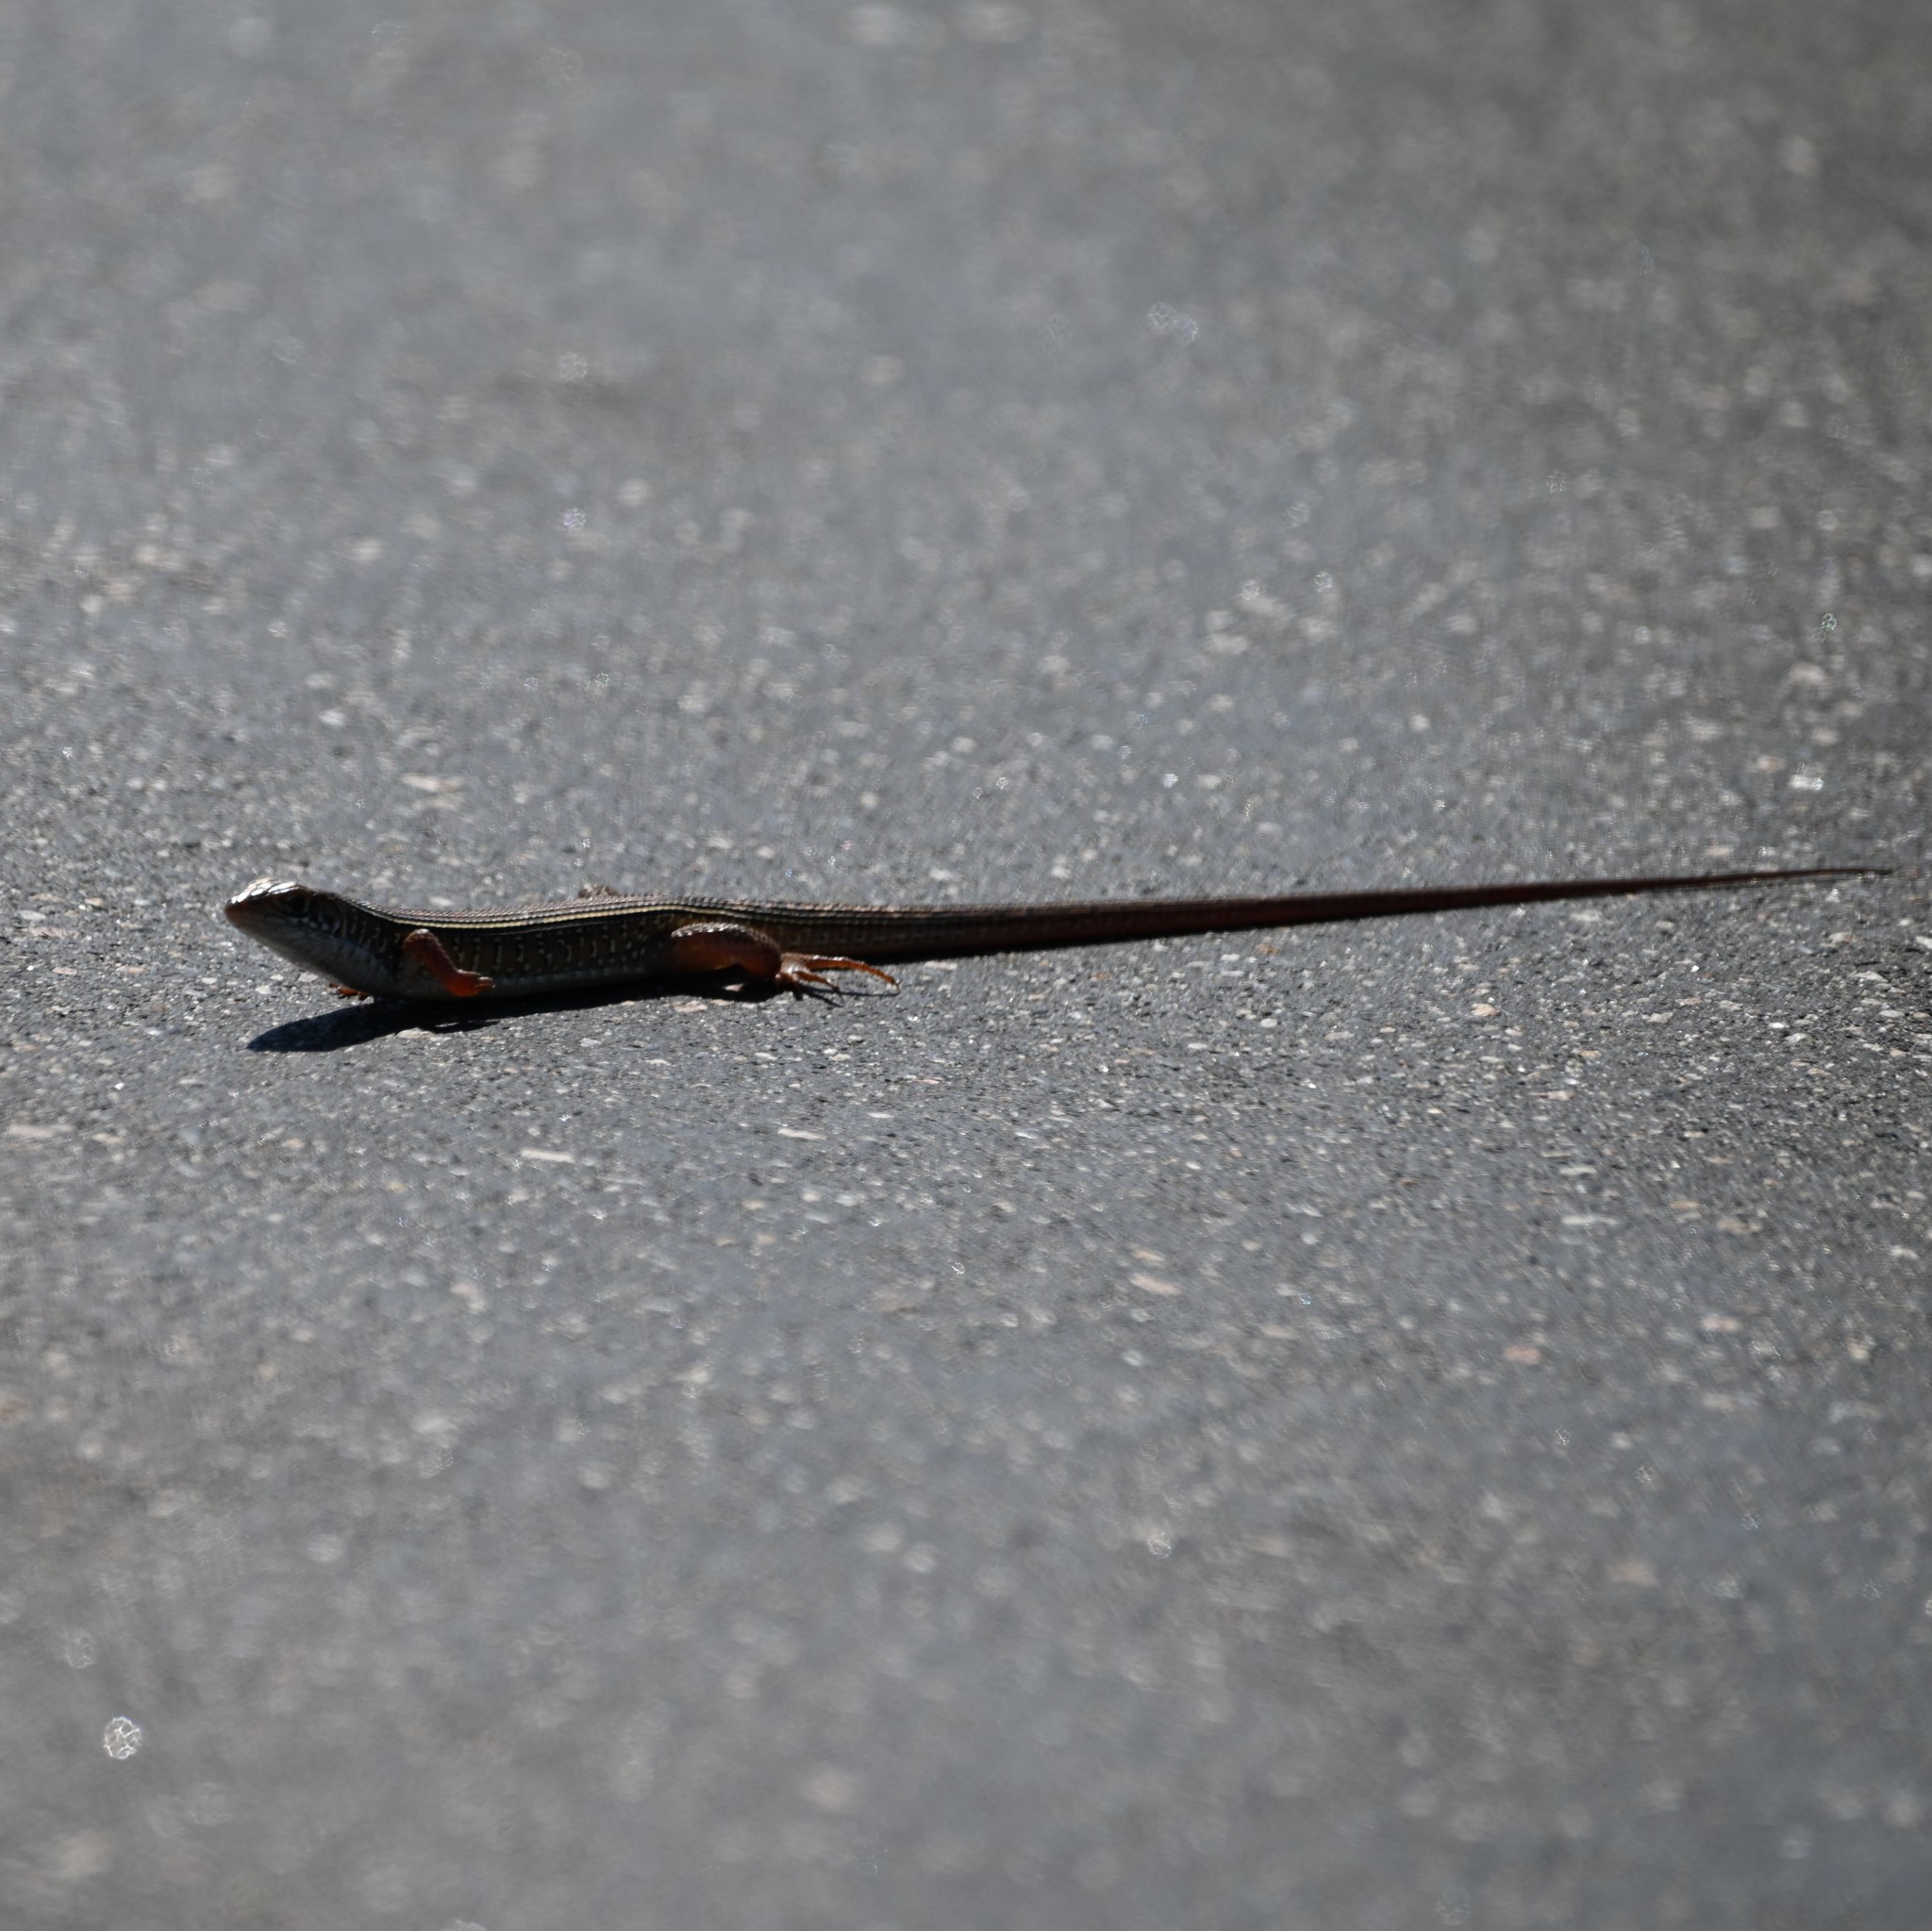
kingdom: Animalia
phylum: Chordata
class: Squamata
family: Gerrhosauridae
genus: Gerrhosaurus
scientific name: Gerrhosaurus nigrolineatus
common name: Black-lined plated lizard
